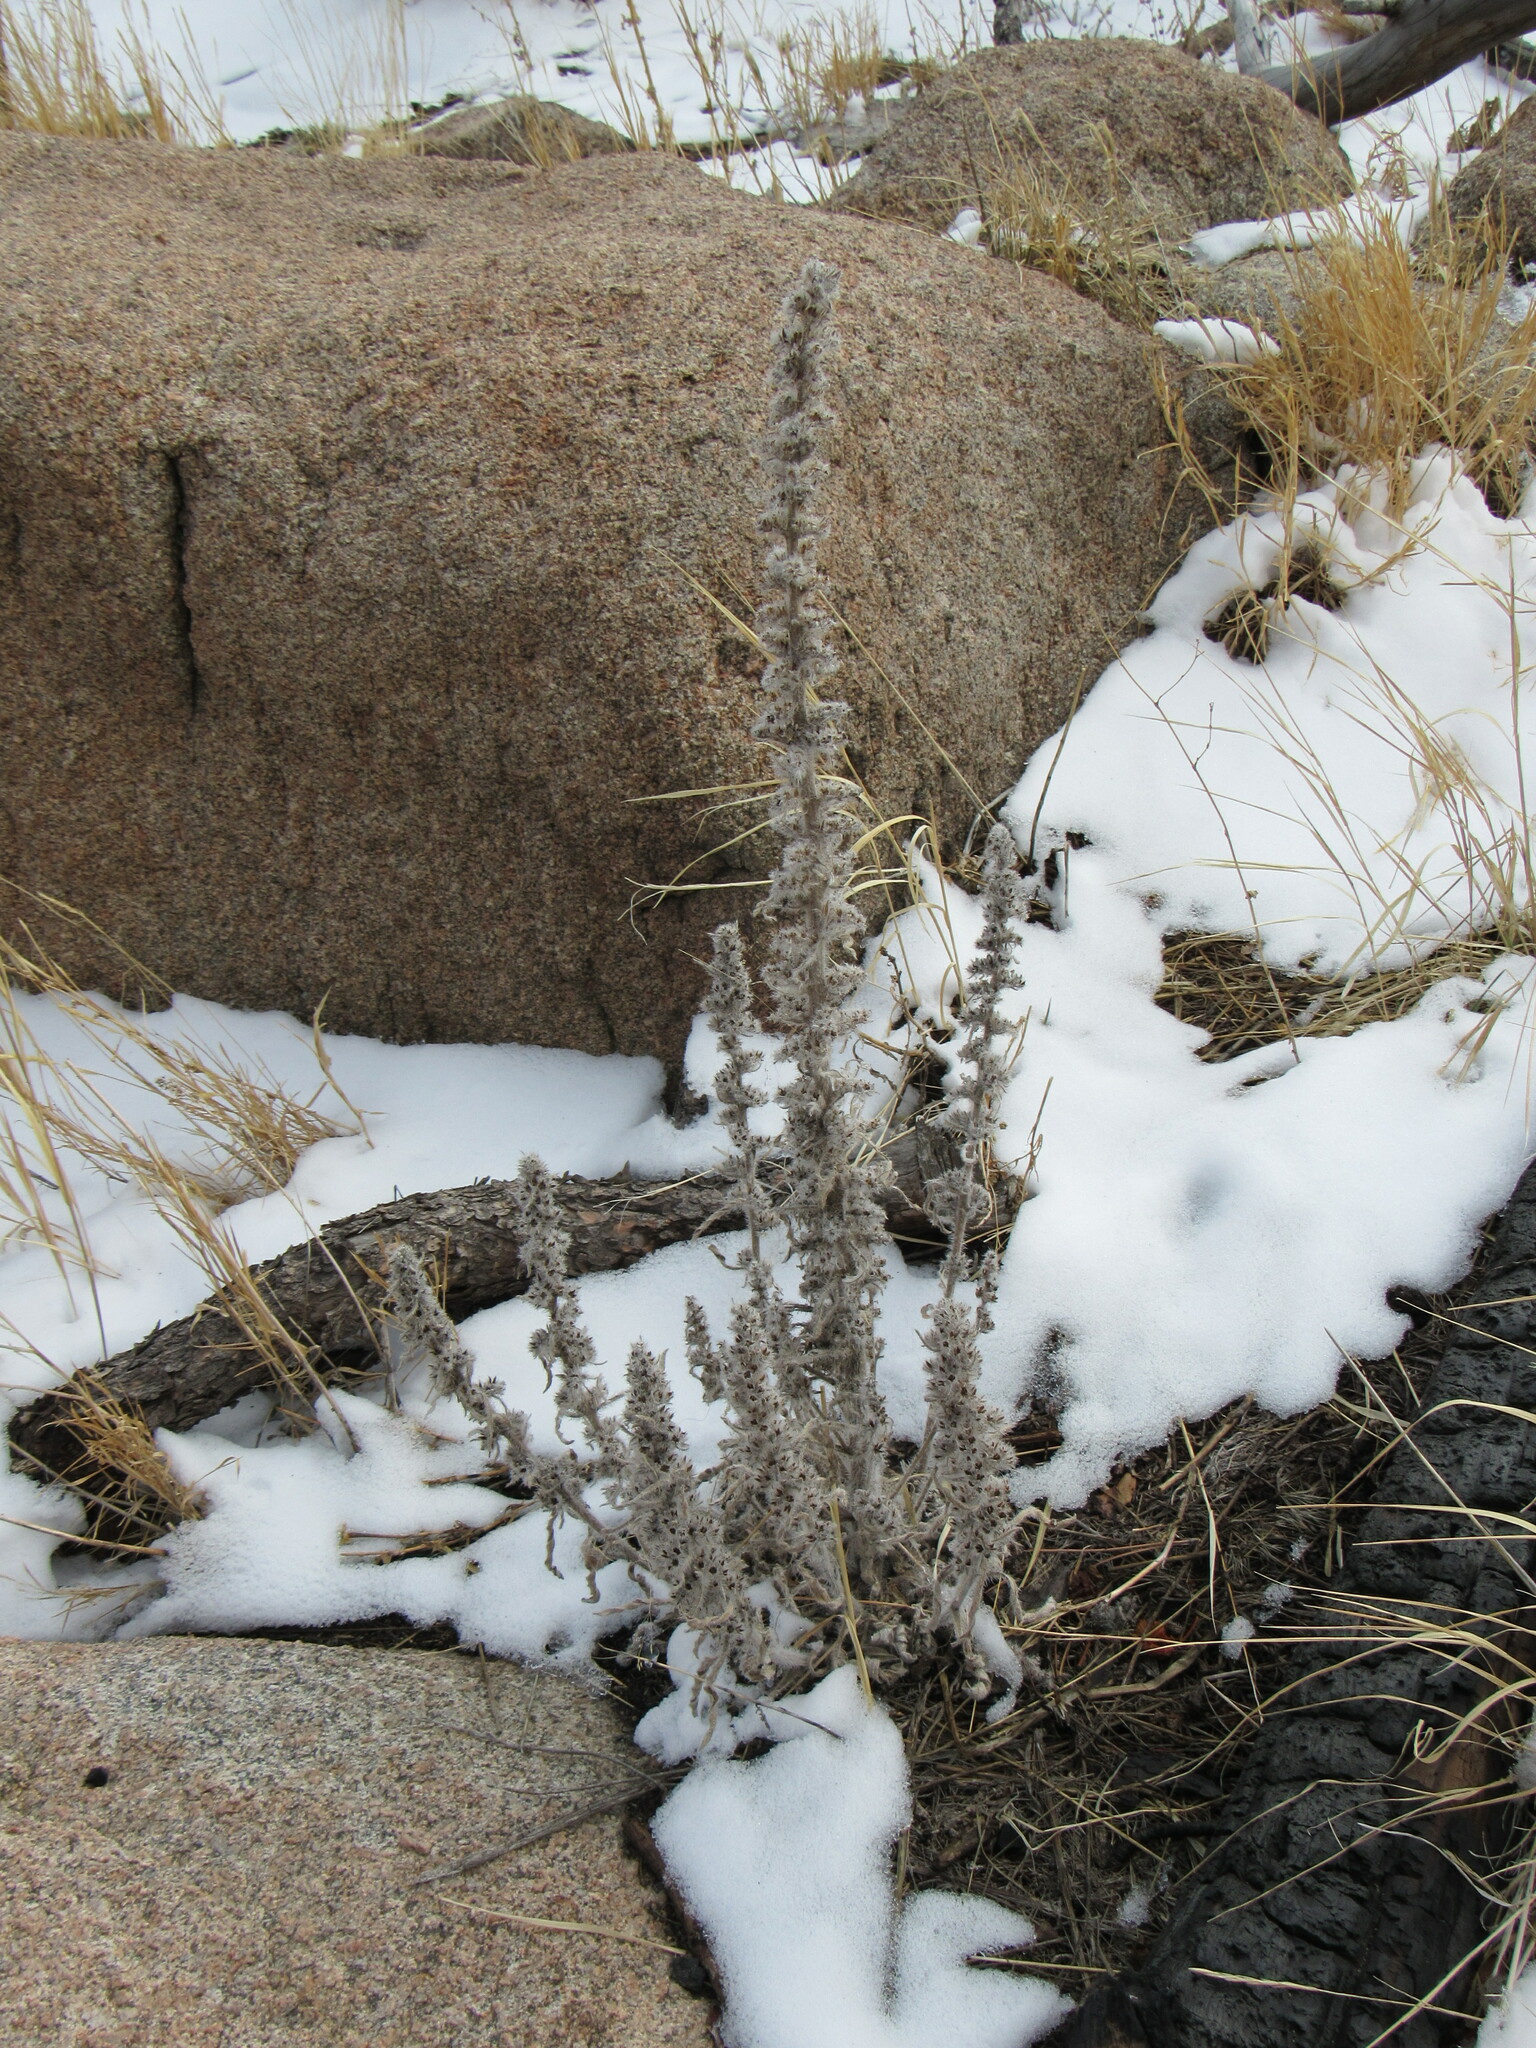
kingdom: Plantae
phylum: Tracheophyta
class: Magnoliopsida
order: Boraginales
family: Boraginaceae
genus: Oreocarya
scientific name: Oreocarya virgata
